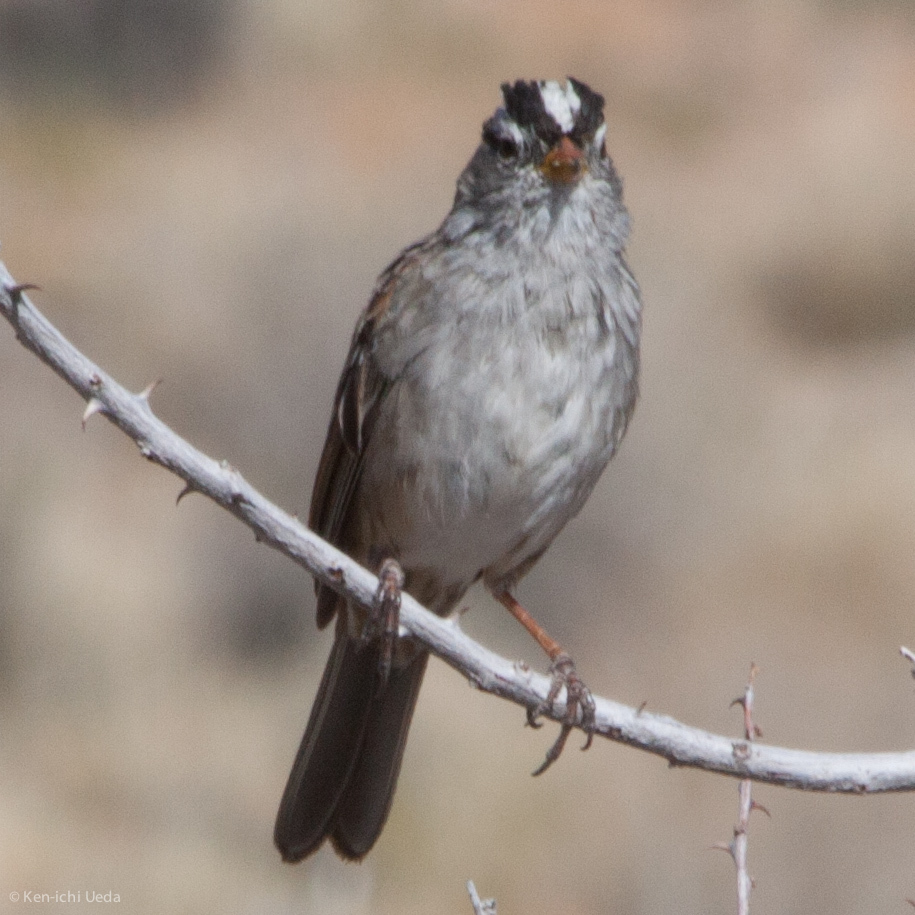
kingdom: Animalia
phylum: Chordata
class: Aves
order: Passeriformes
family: Passerellidae
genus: Zonotrichia
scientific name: Zonotrichia leucophrys
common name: White-crowned sparrow
